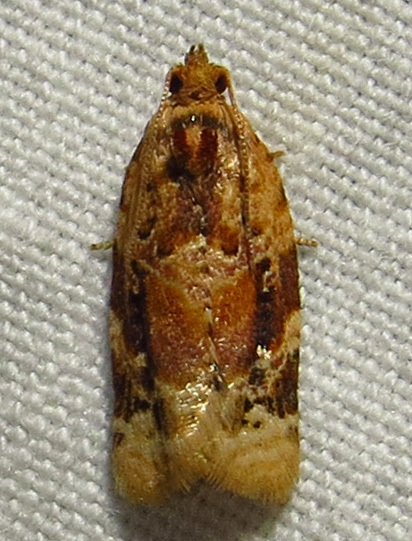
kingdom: Animalia
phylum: Arthropoda
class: Insecta
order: Lepidoptera
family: Tortricidae
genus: Argyrotaenia
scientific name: Argyrotaenia velutinana
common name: Red-banded leafroller moth
